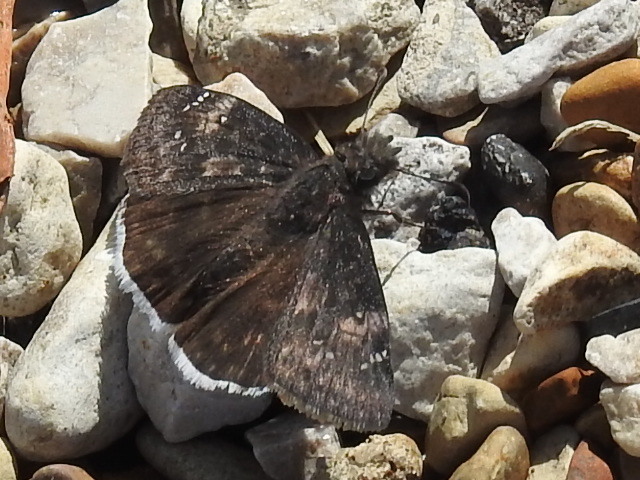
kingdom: Animalia
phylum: Arthropoda
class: Insecta
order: Lepidoptera
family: Hesperiidae
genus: Erynnis
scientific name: Erynnis funeralis
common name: Funereal duskywing
